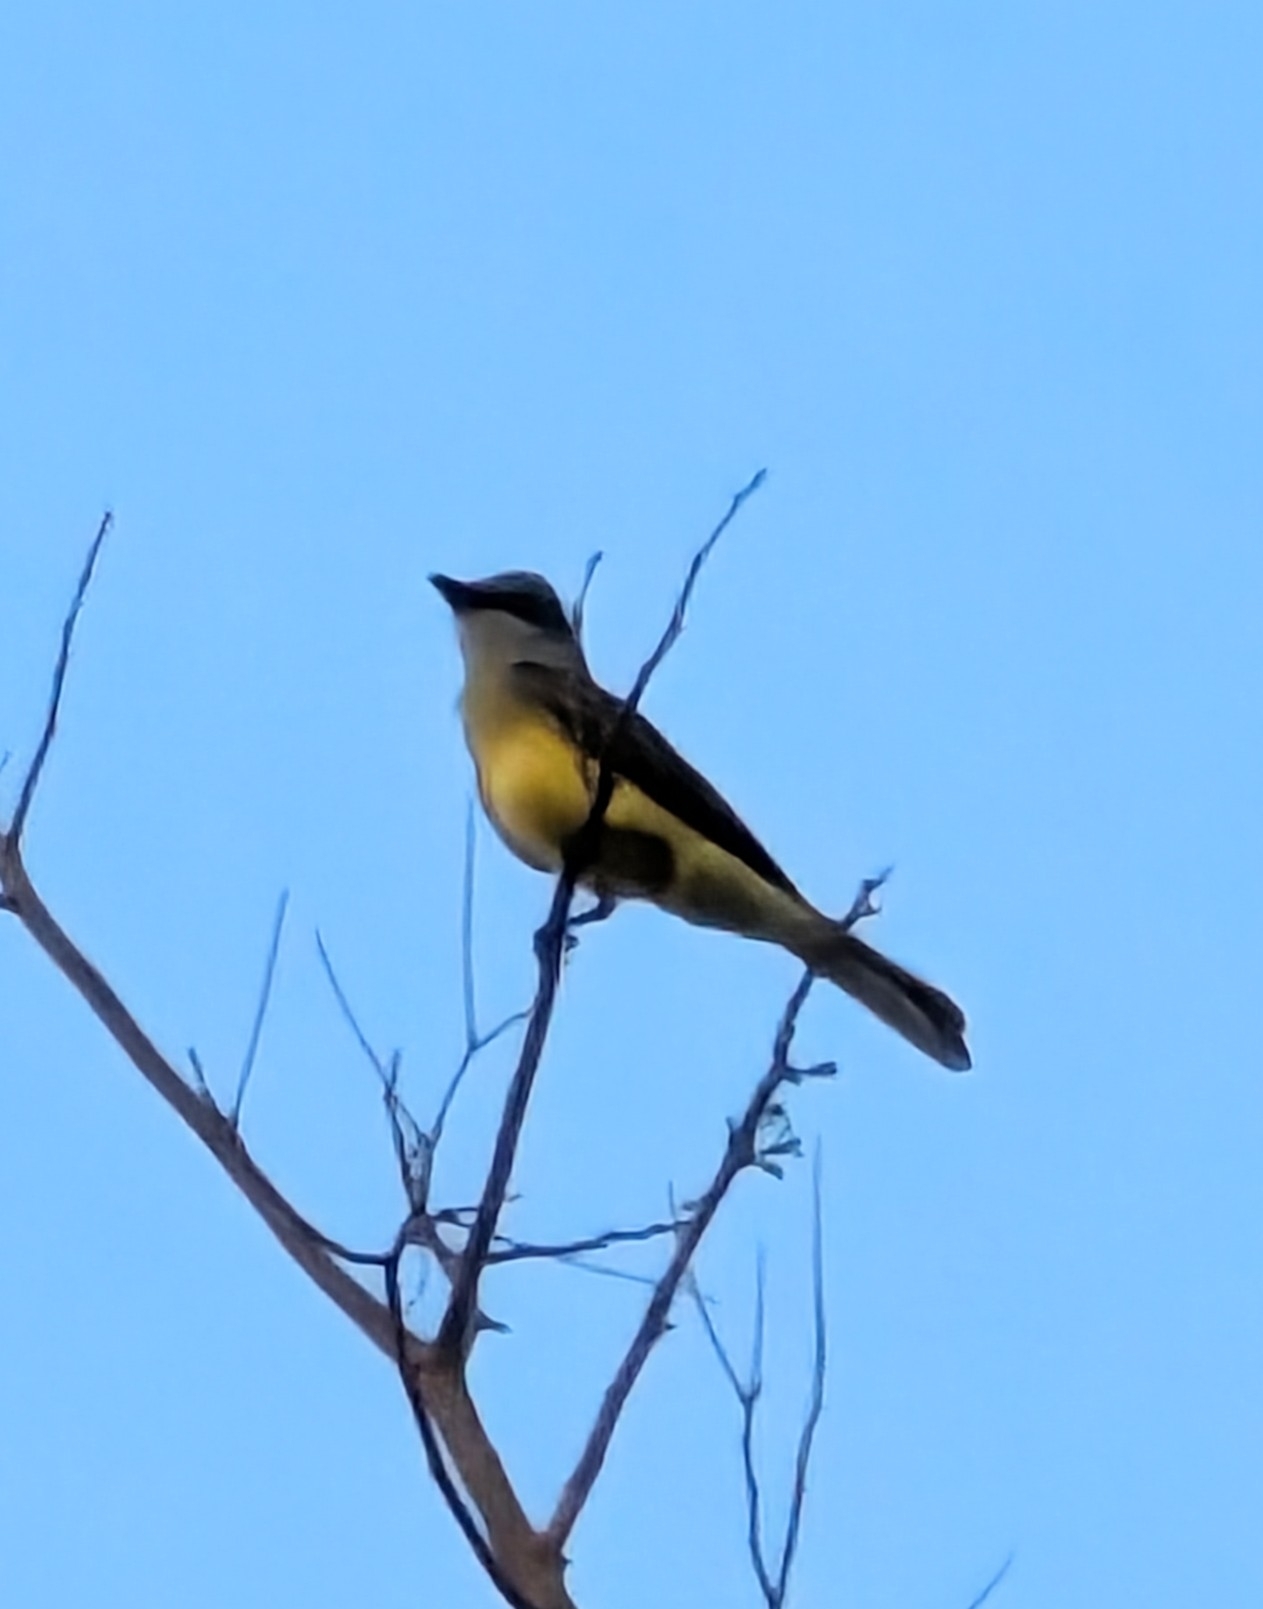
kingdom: Animalia
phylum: Chordata
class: Aves
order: Passeriformes
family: Tyrannidae
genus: Tyrannus
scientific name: Tyrannus melancholicus
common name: Tropical kingbird
